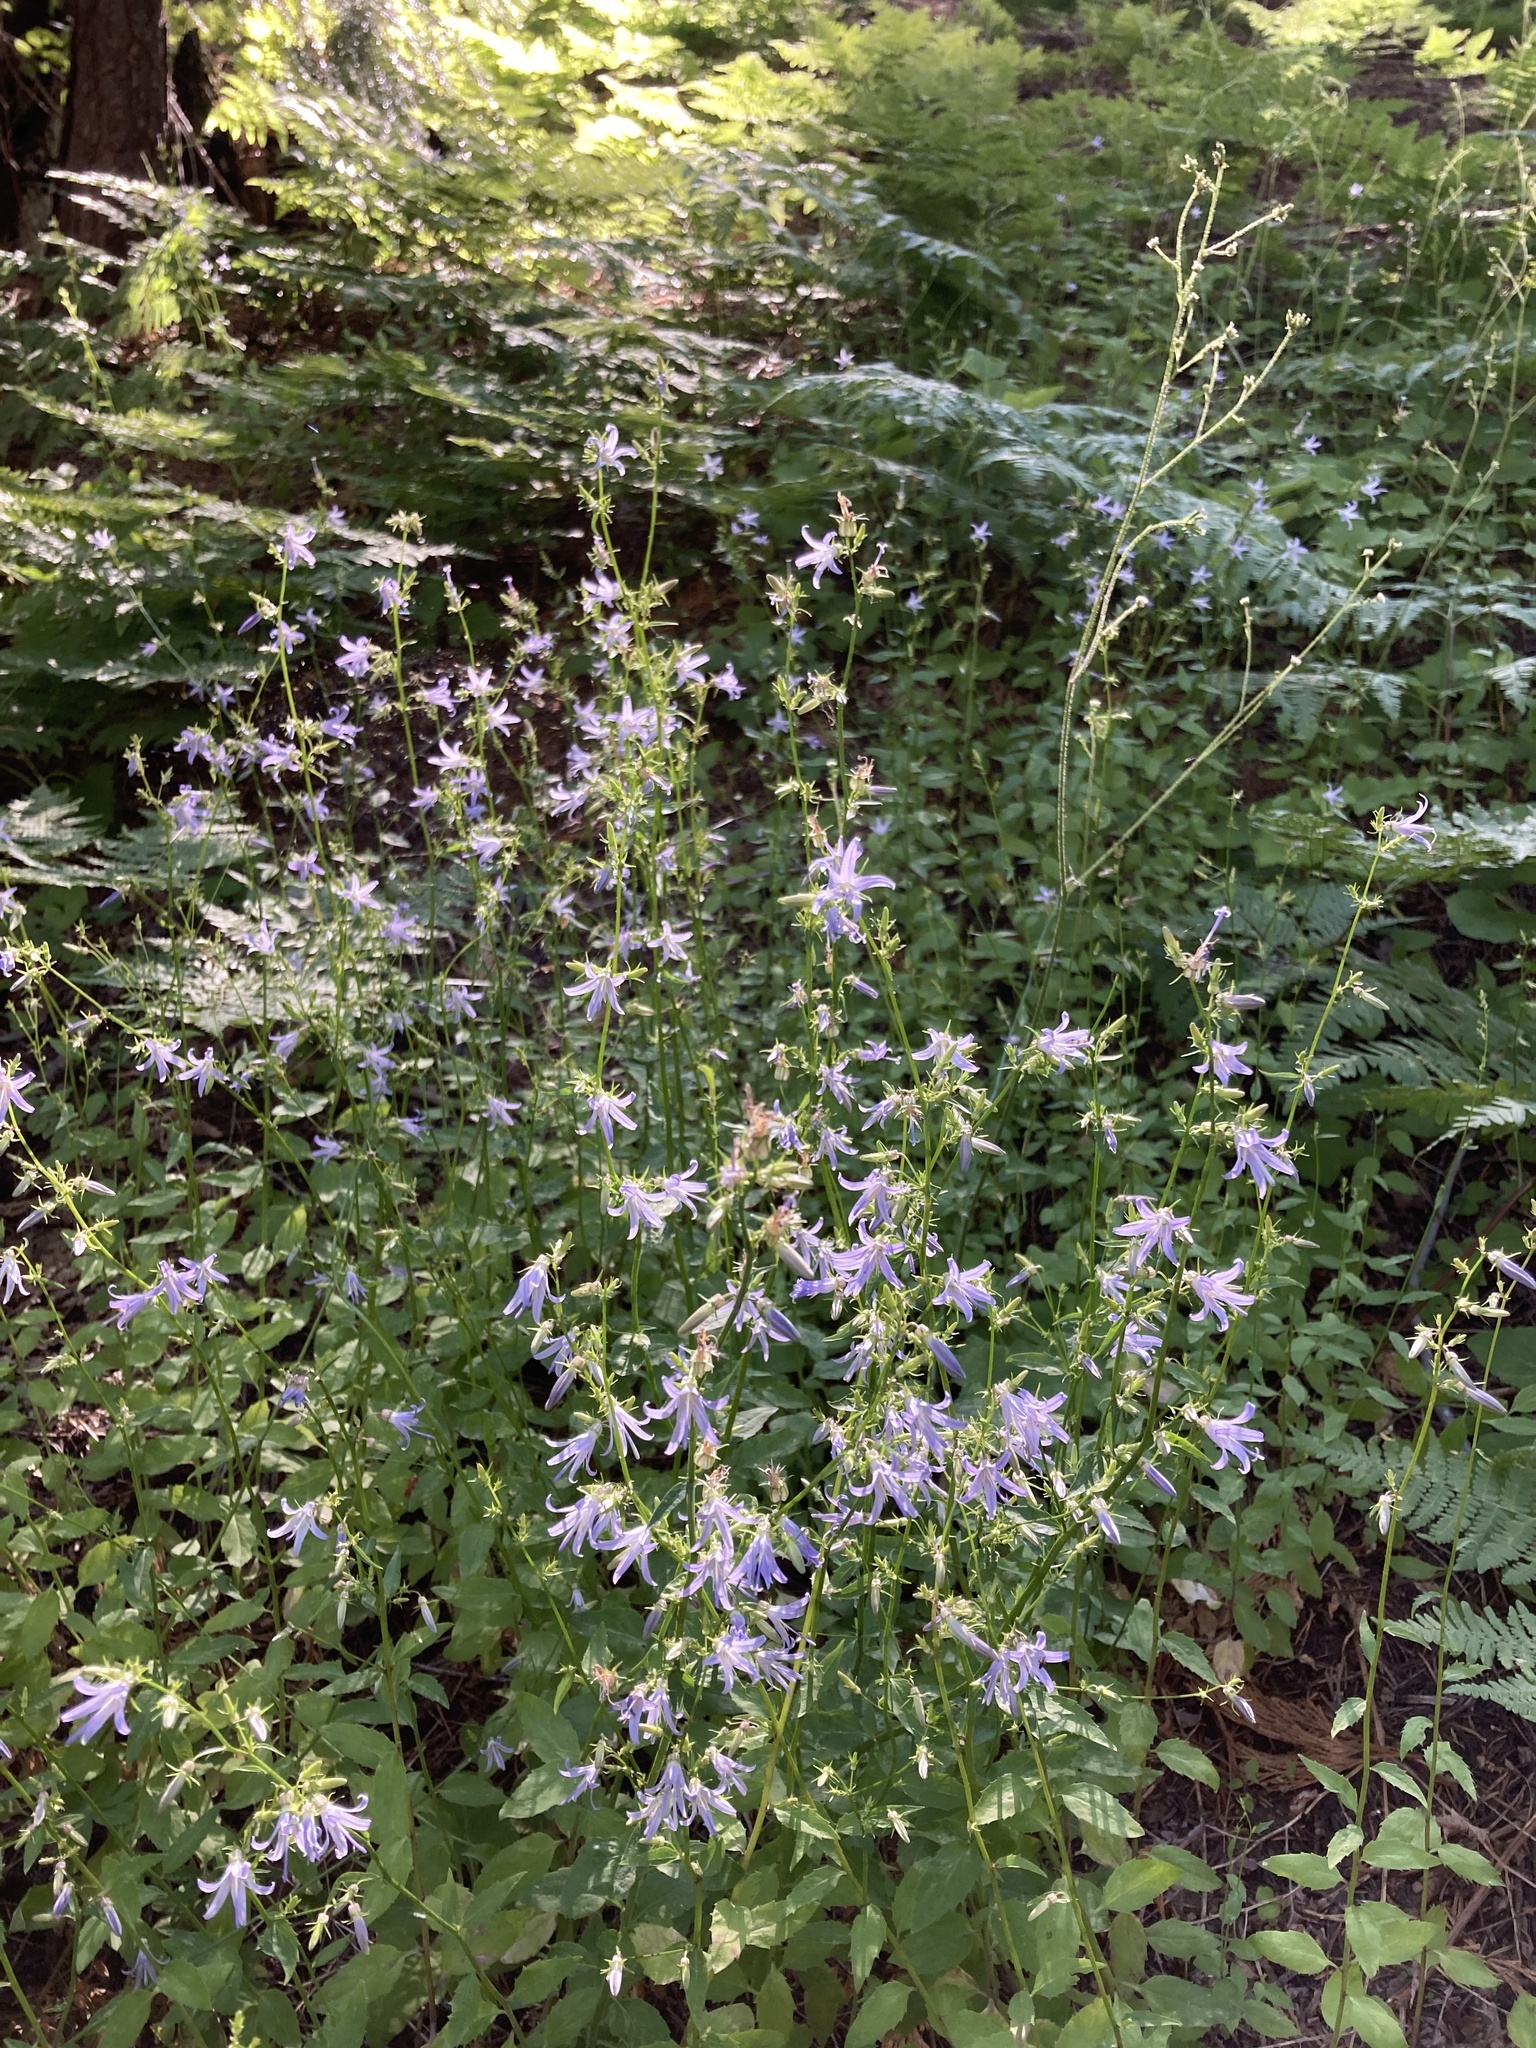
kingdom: Plantae
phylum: Tracheophyta
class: Magnoliopsida
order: Asterales
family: Campanulaceae
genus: Smithiastrum
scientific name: Smithiastrum prenanthoides
